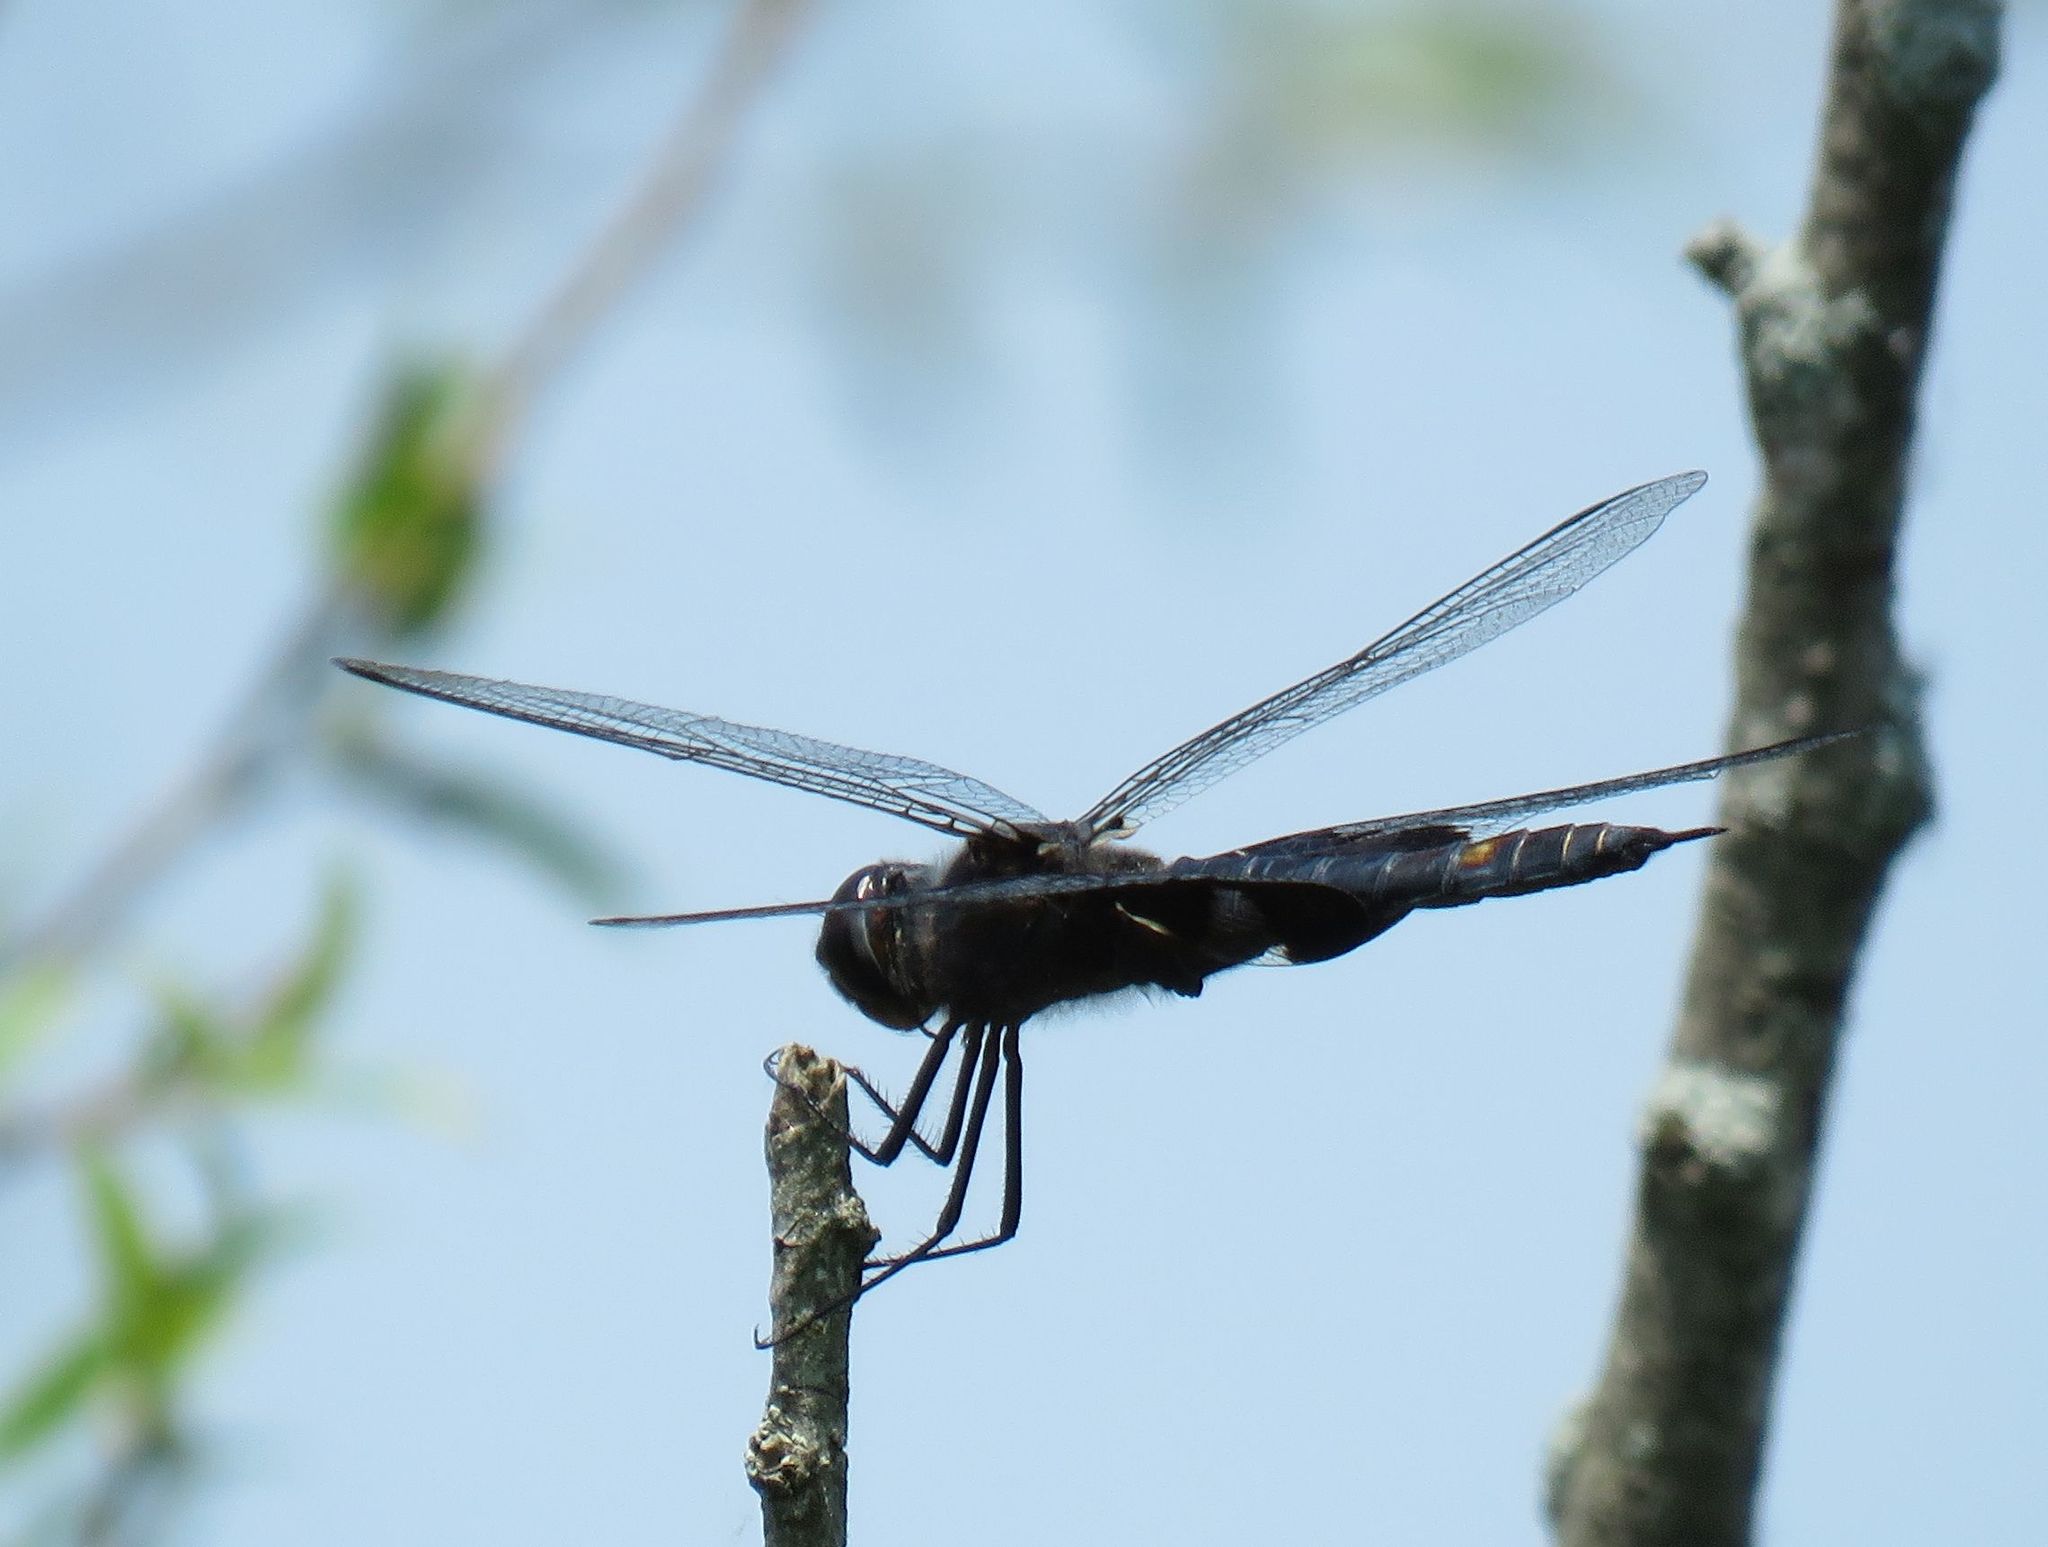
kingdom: Animalia
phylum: Arthropoda
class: Insecta
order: Odonata
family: Libellulidae
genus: Tramea
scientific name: Tramea lacerata
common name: Black saddlebags
